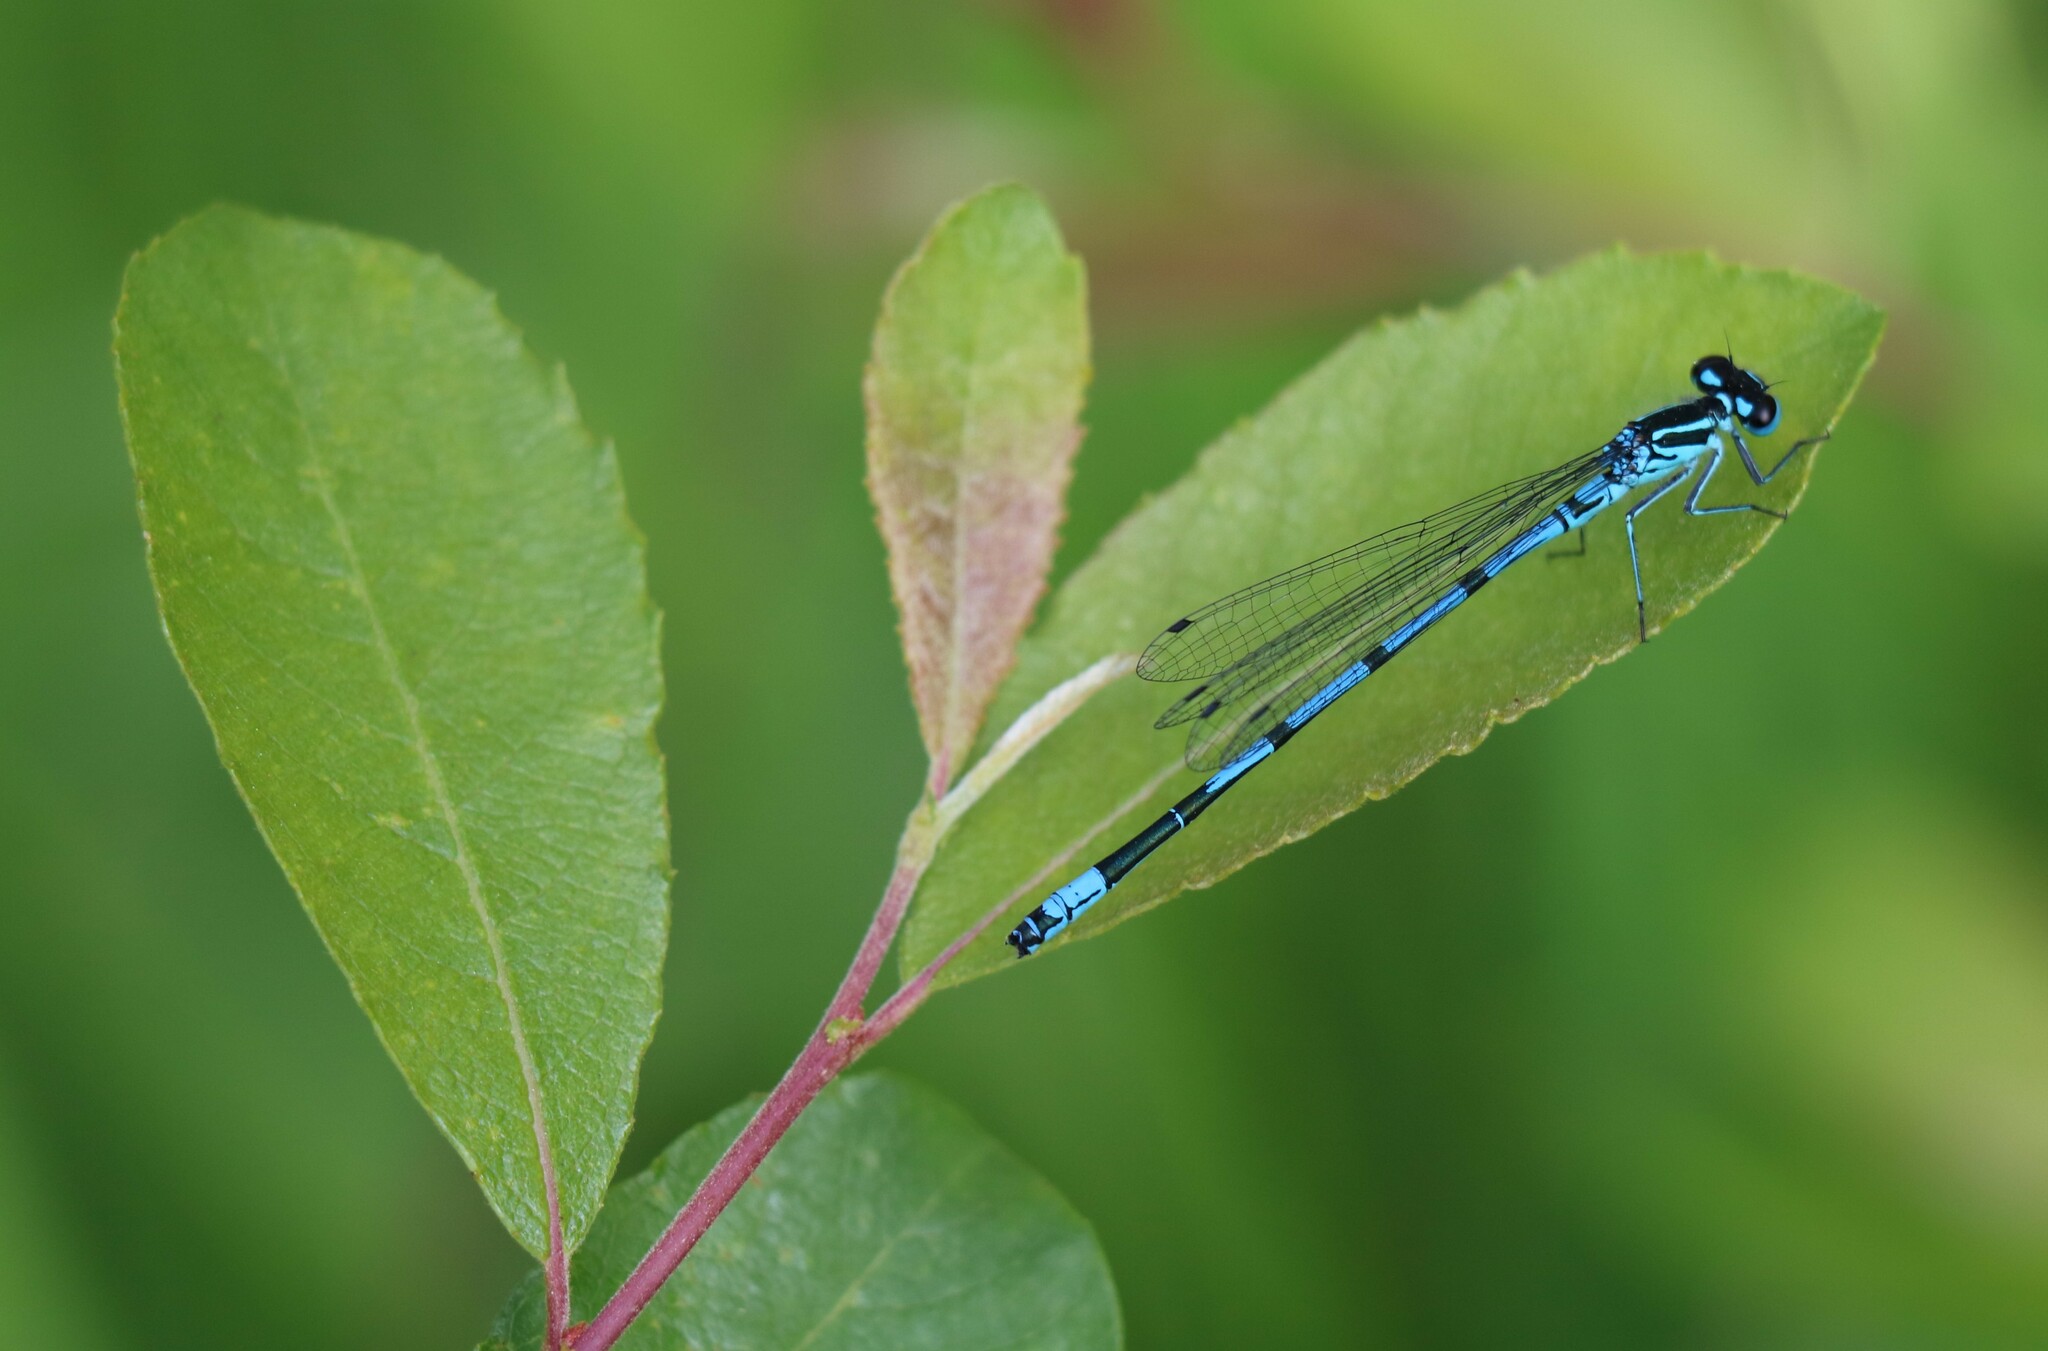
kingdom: Animalia
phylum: Arthropoda
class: Insecta
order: Odonata
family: Coenagrionidae
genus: Coenagrion
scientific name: Coenagrion puella
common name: Azure damselfly
